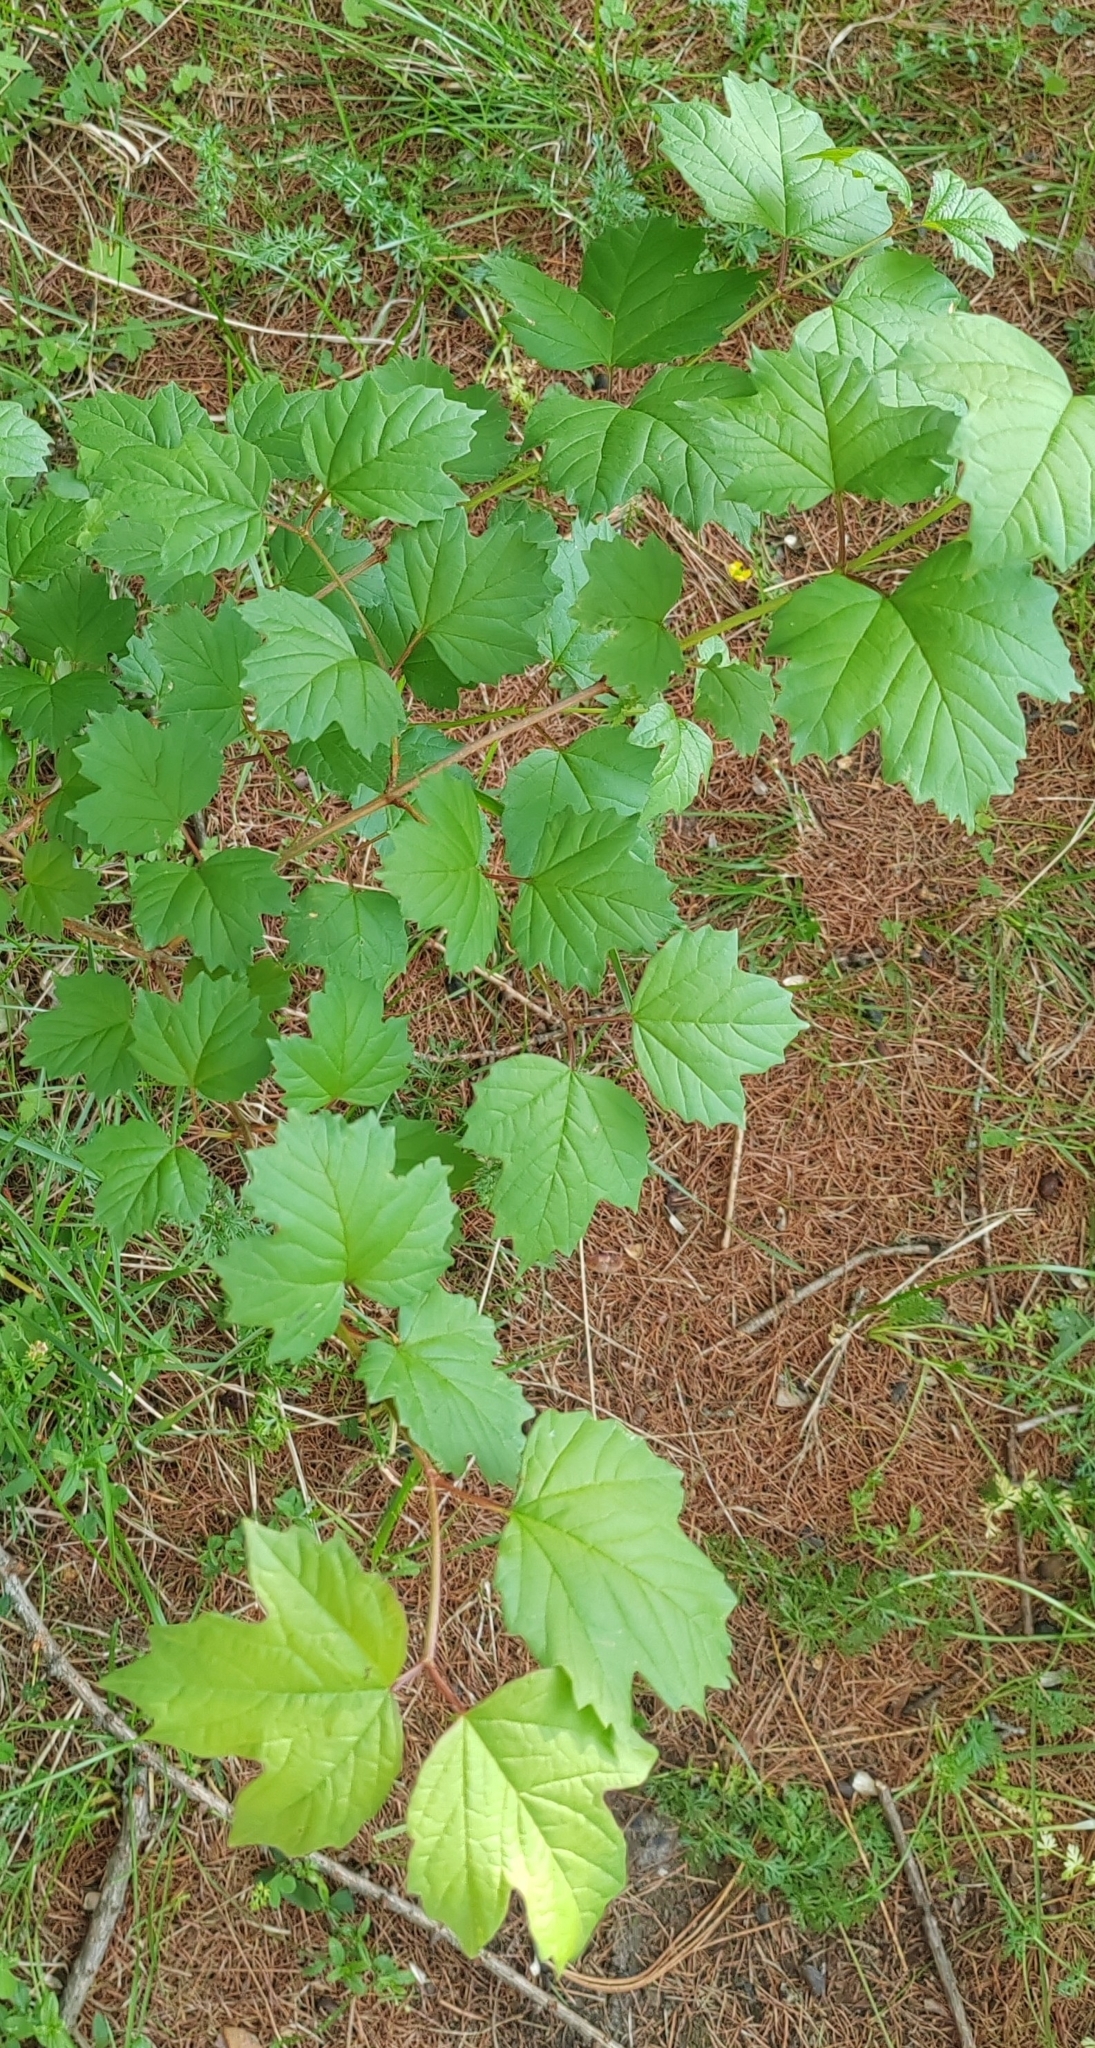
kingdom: Plantae
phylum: Tracheophyta
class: Magnoliopsida
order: Dipsacales
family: Viburnaceae
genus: Viburnum
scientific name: Viburnum opulus
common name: Guelder-rose
